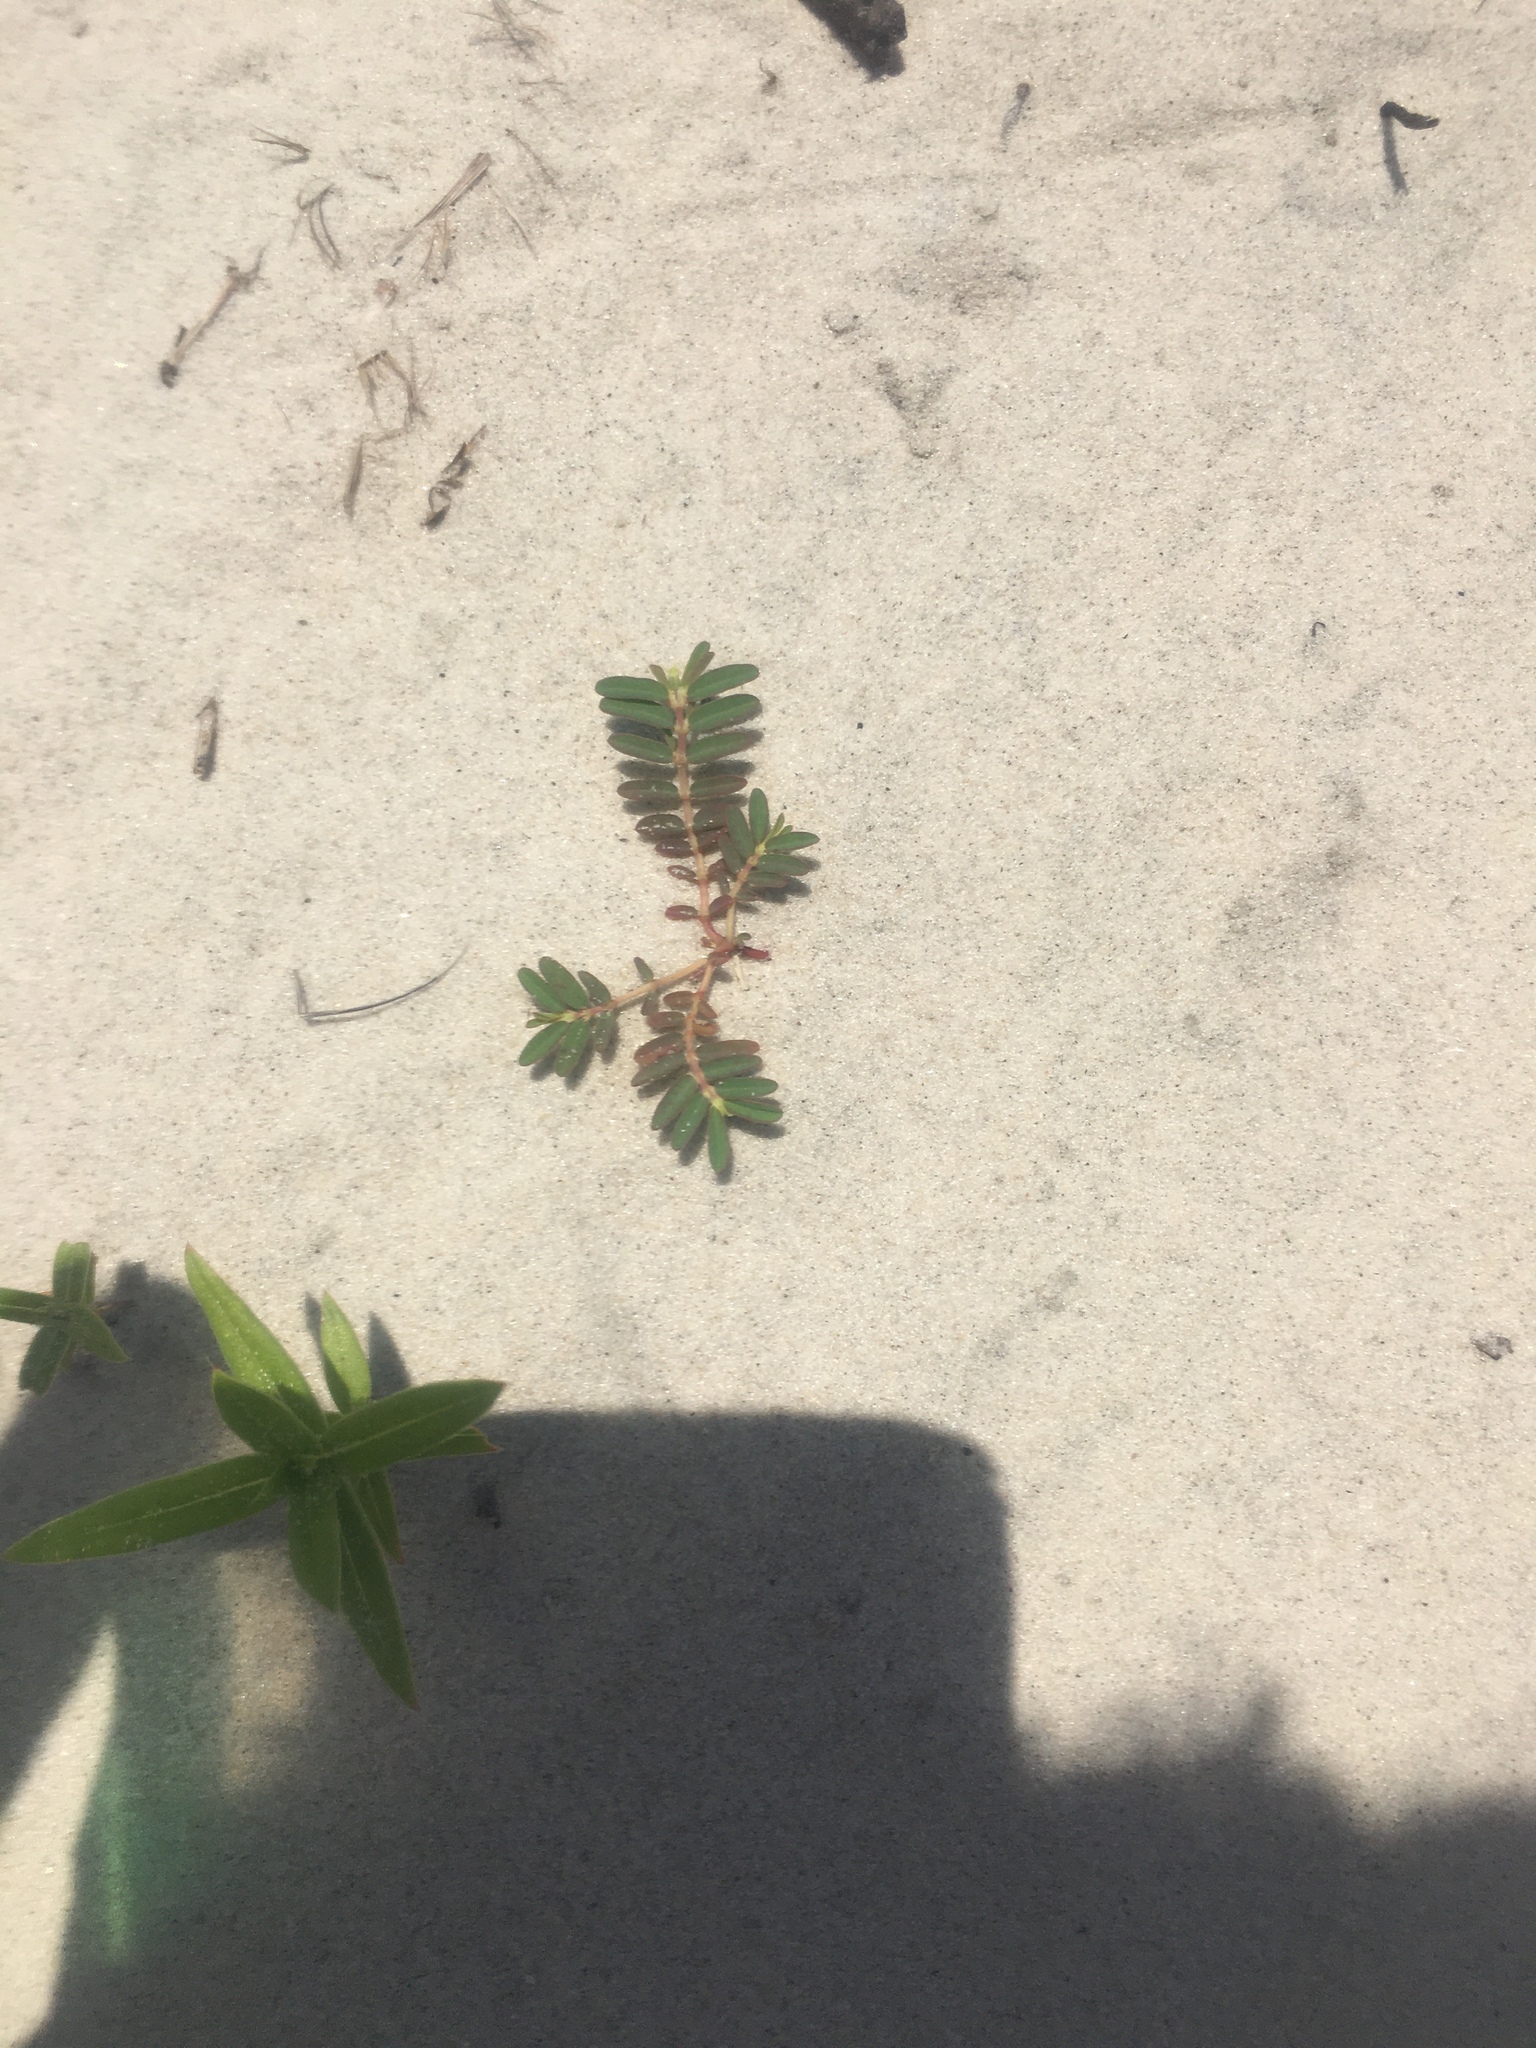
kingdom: Plantae
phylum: Tracheophyta
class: Magnoliopsida
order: Malpighiales
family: Euphorbiaceae
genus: Euphorbia
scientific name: Euphorbia bombensis
